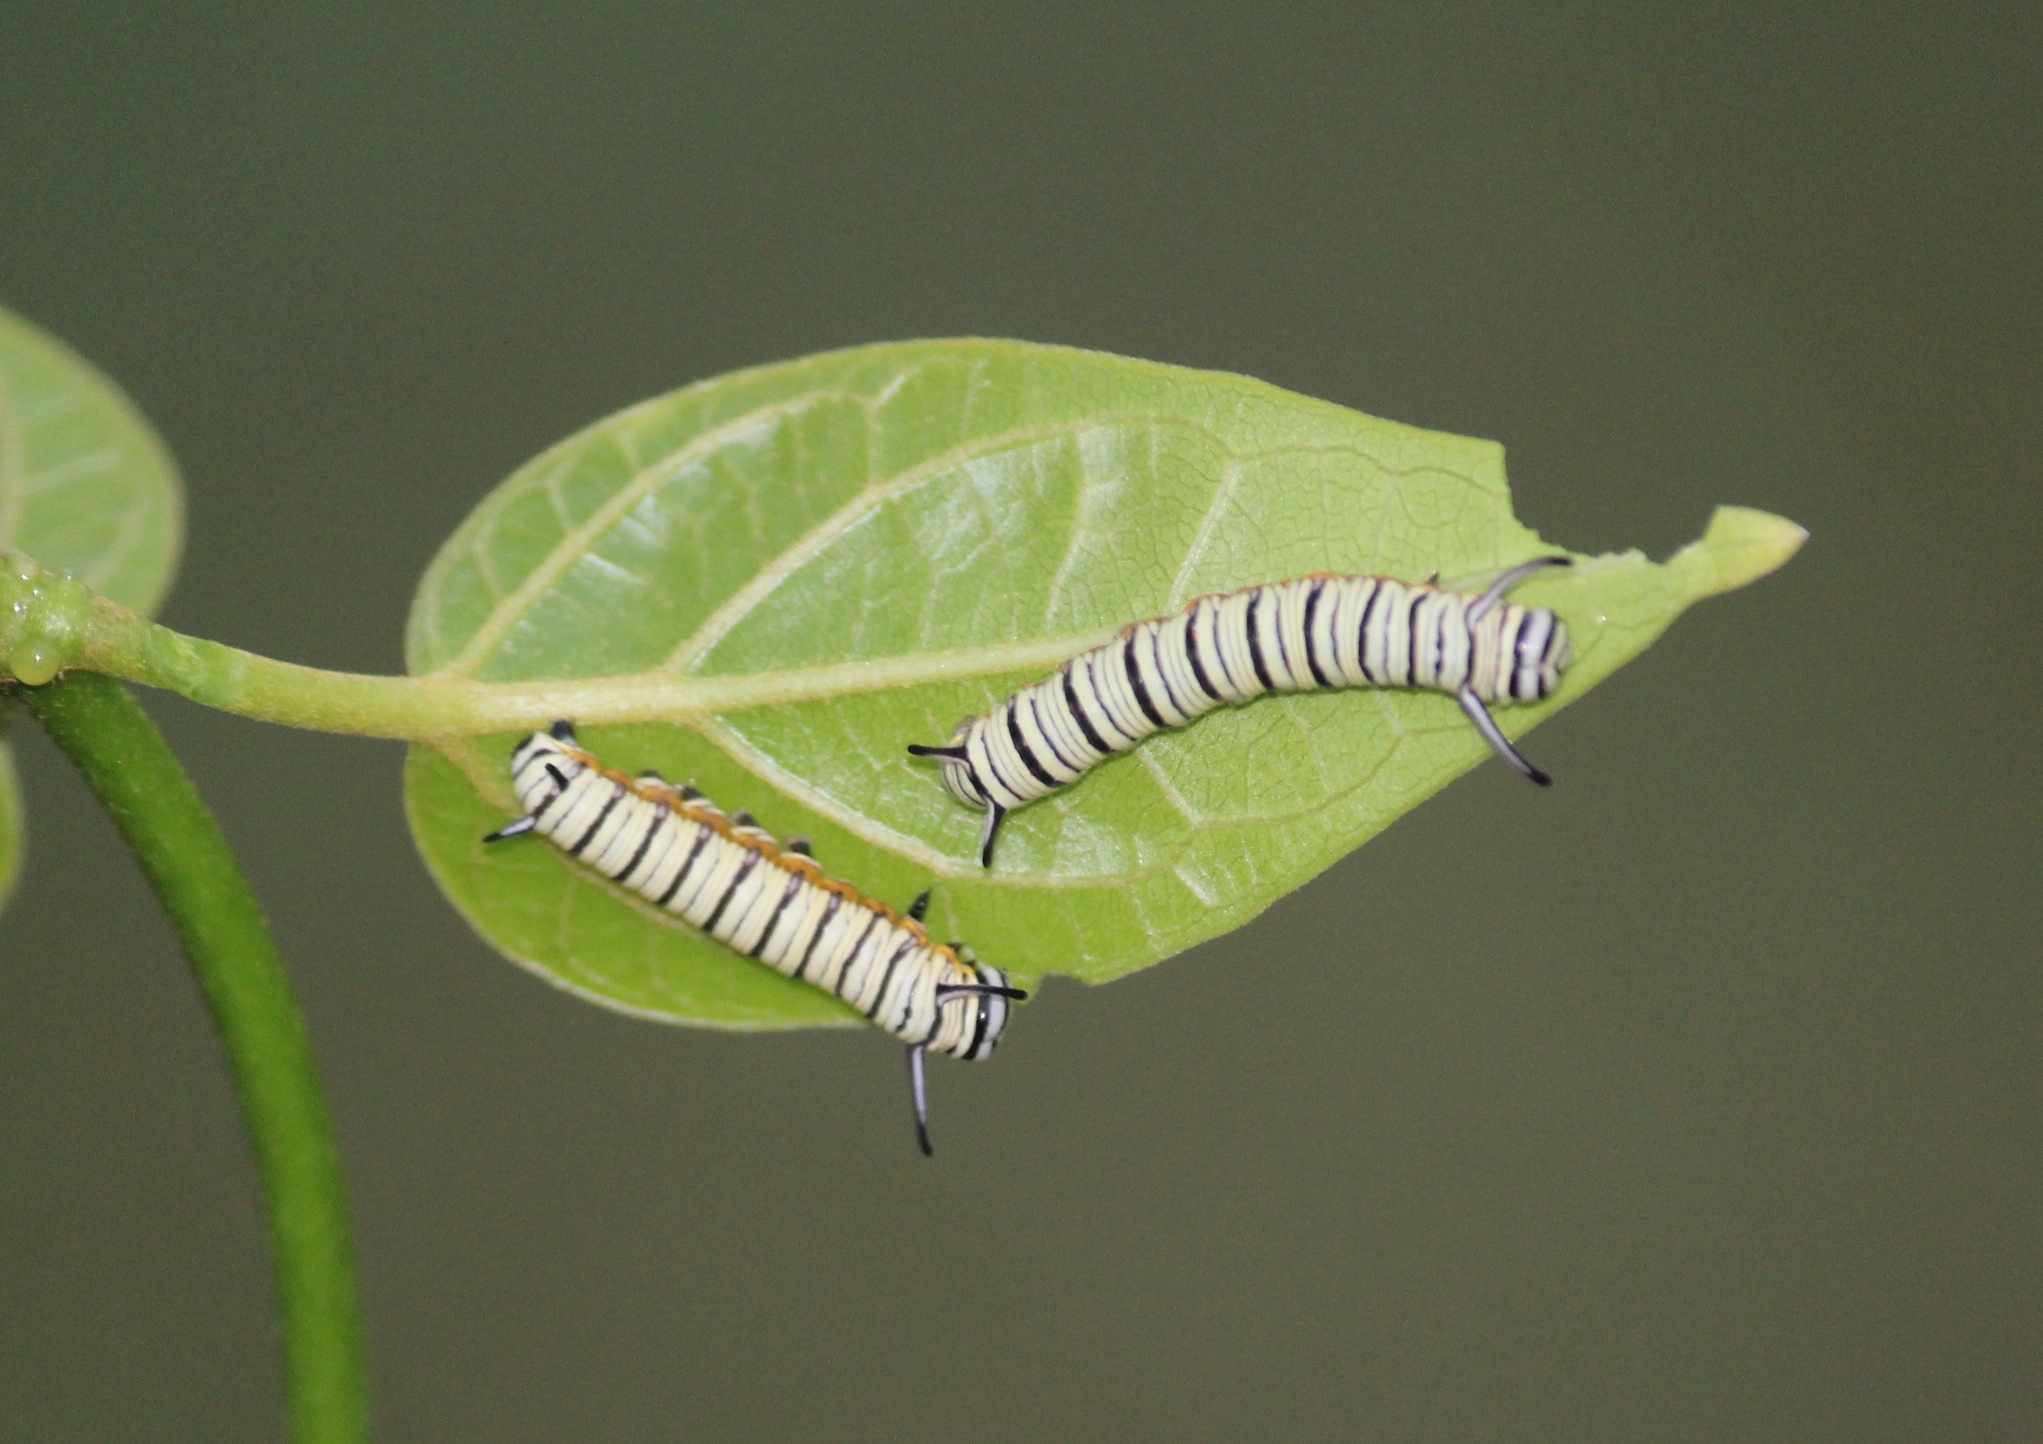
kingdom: Animalia
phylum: Arthropoda
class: Insecta
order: Lepidoptera
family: Nymphalidae
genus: Tirumala
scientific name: Tirumala limniace
